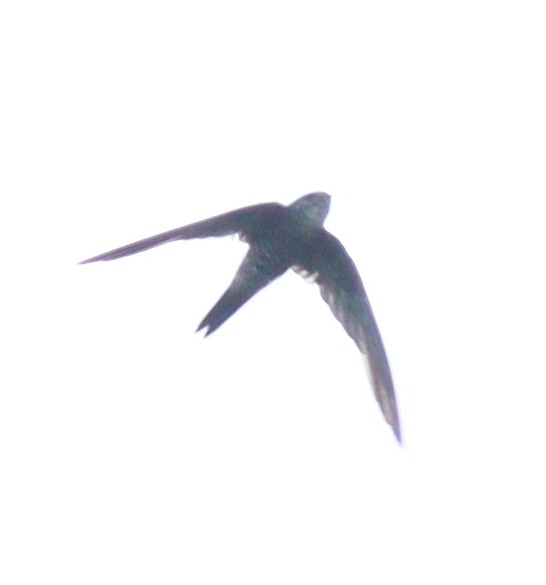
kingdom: Animalia
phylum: Chordata
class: Aves
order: Apodiformes
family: Apodidae
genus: Apus
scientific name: Apus pacificus
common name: Pacific swift
